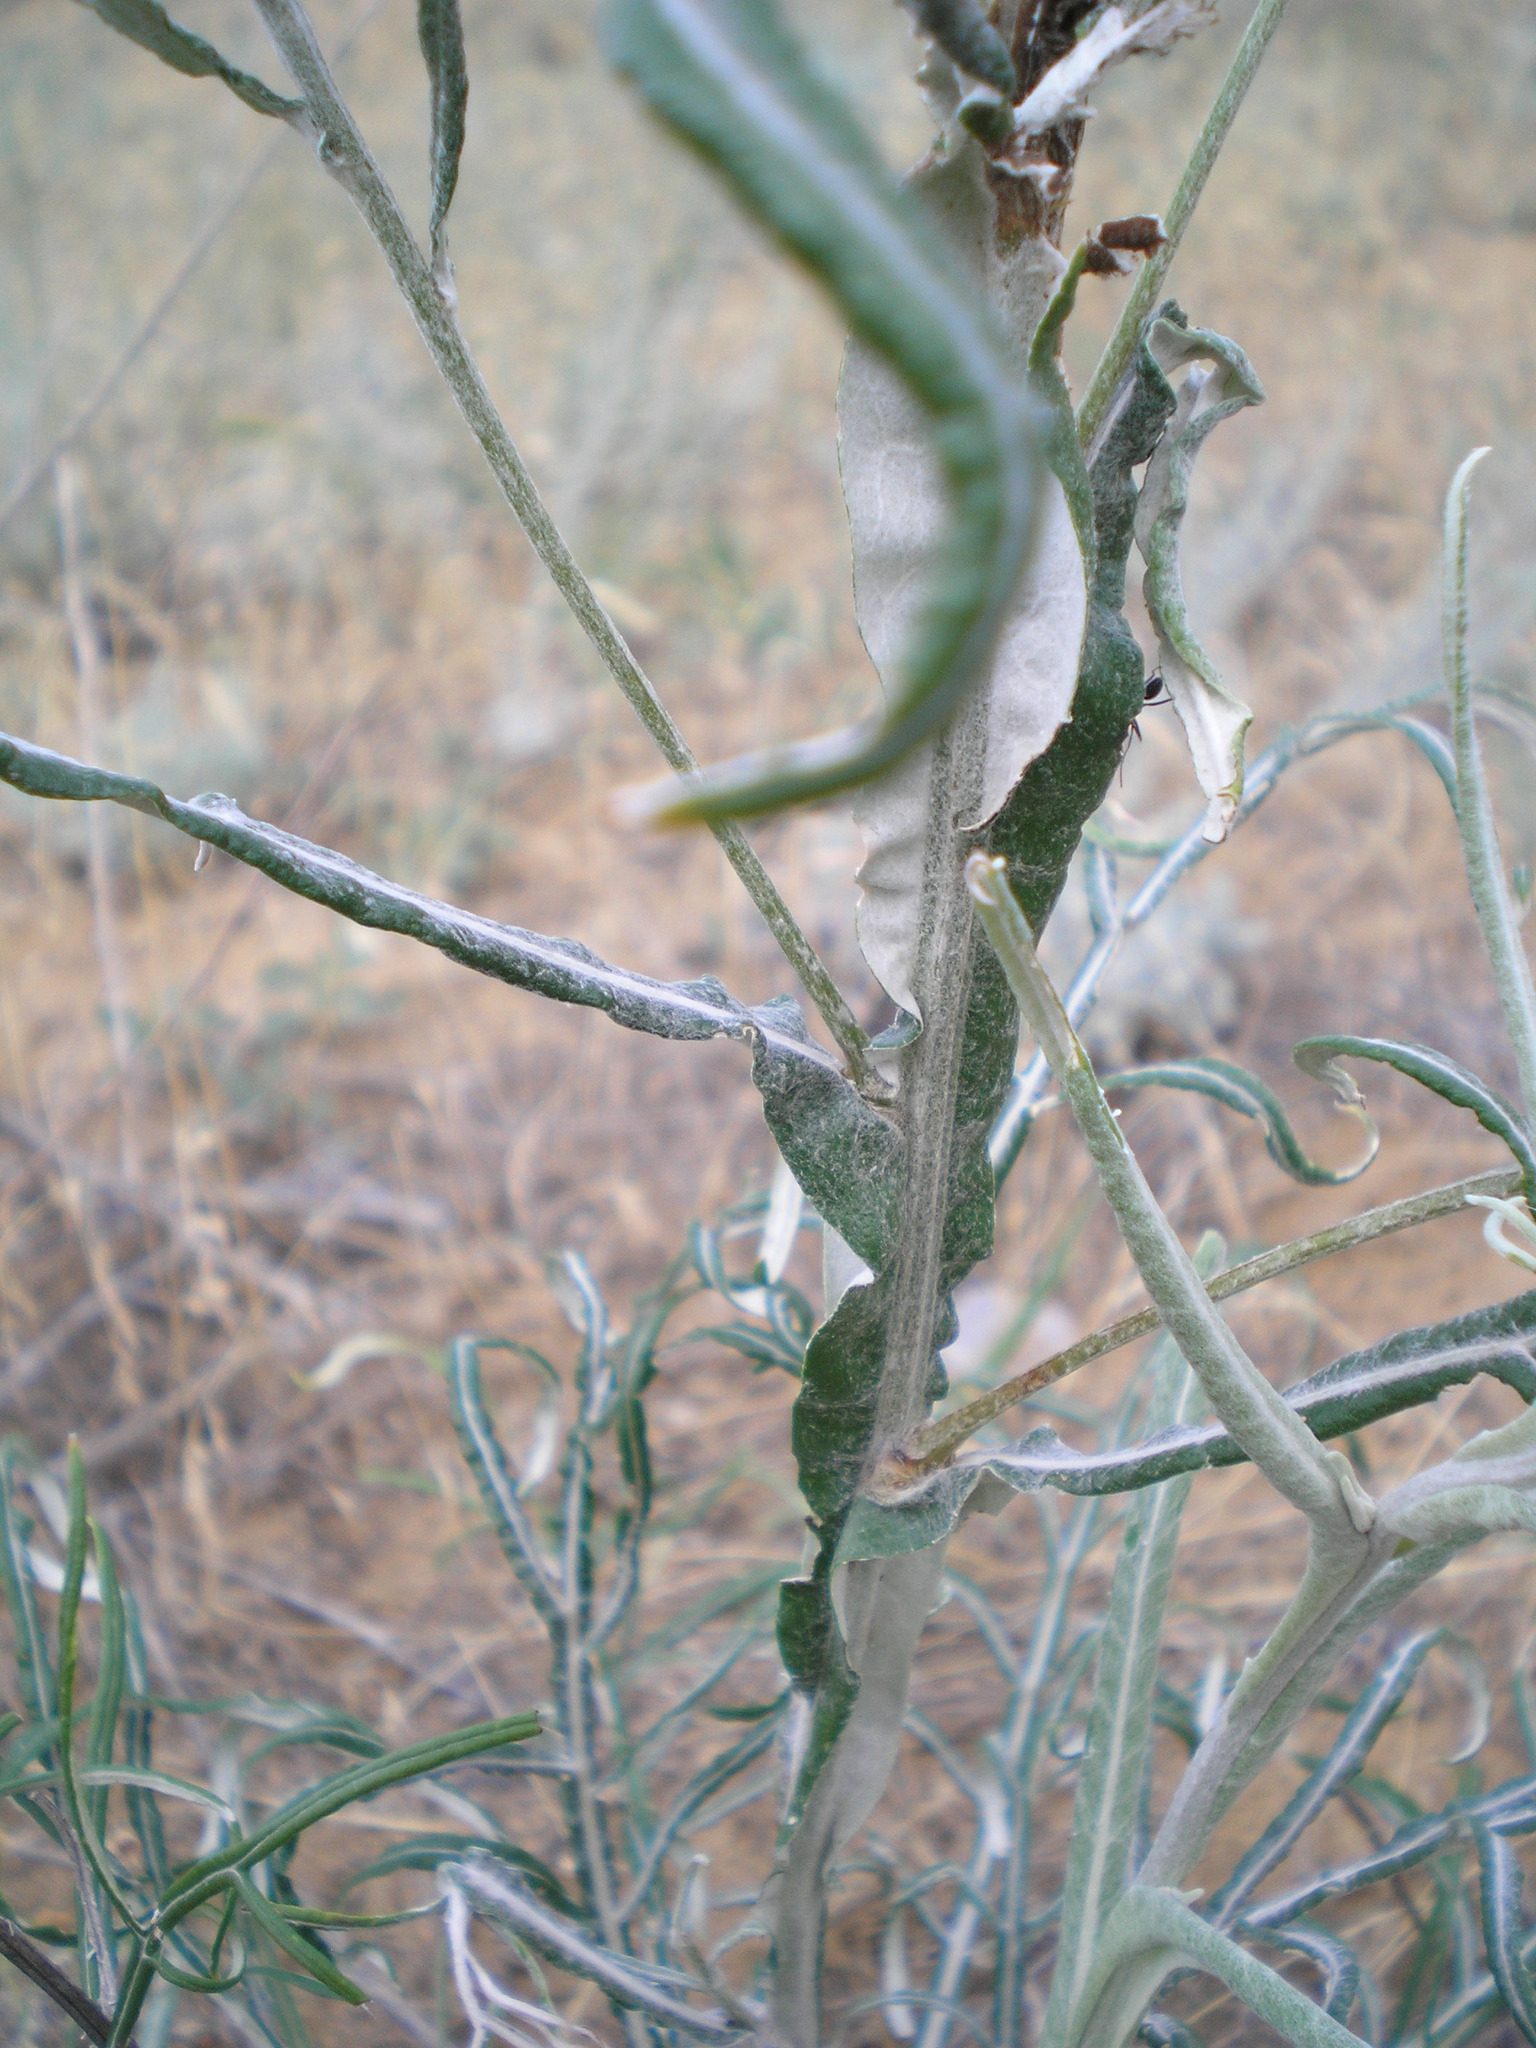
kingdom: Plantae
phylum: Tracheophyta
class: Magnoliopsida
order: Asterales
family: Asteraceae
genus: Jurinea
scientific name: Jurinea polyclonos
